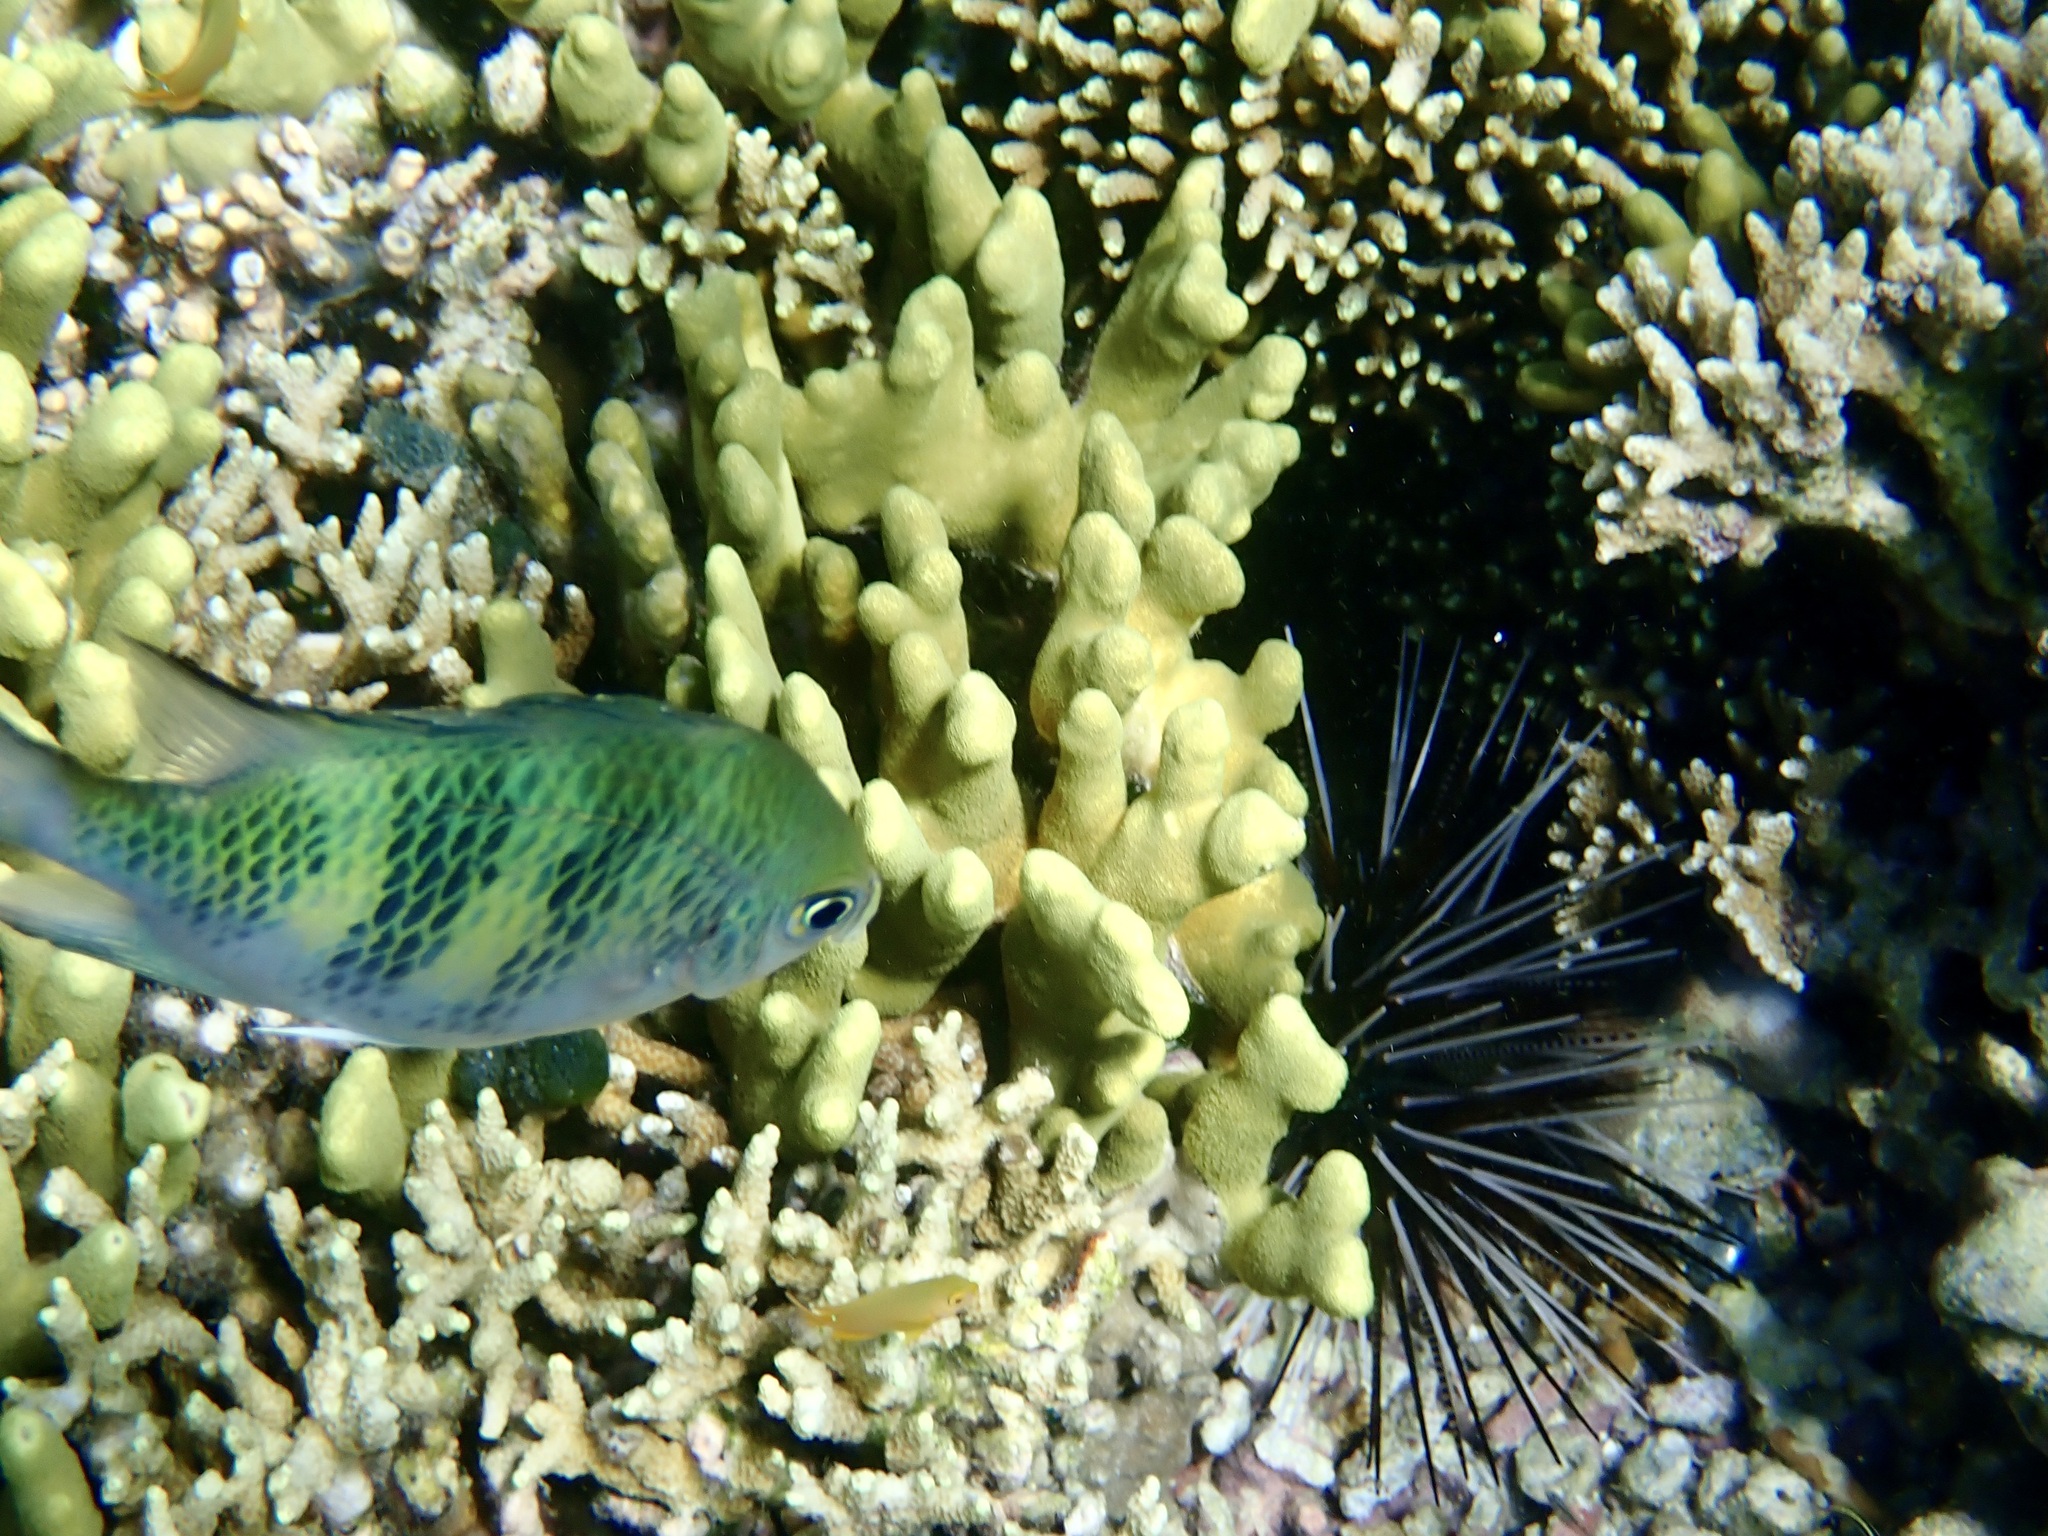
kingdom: Animalia
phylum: Chordata
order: Perciformes
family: Pomacentridae
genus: Amblyglyphidodon
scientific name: Amblyglyphidodon curacao
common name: Staghorn damsel
